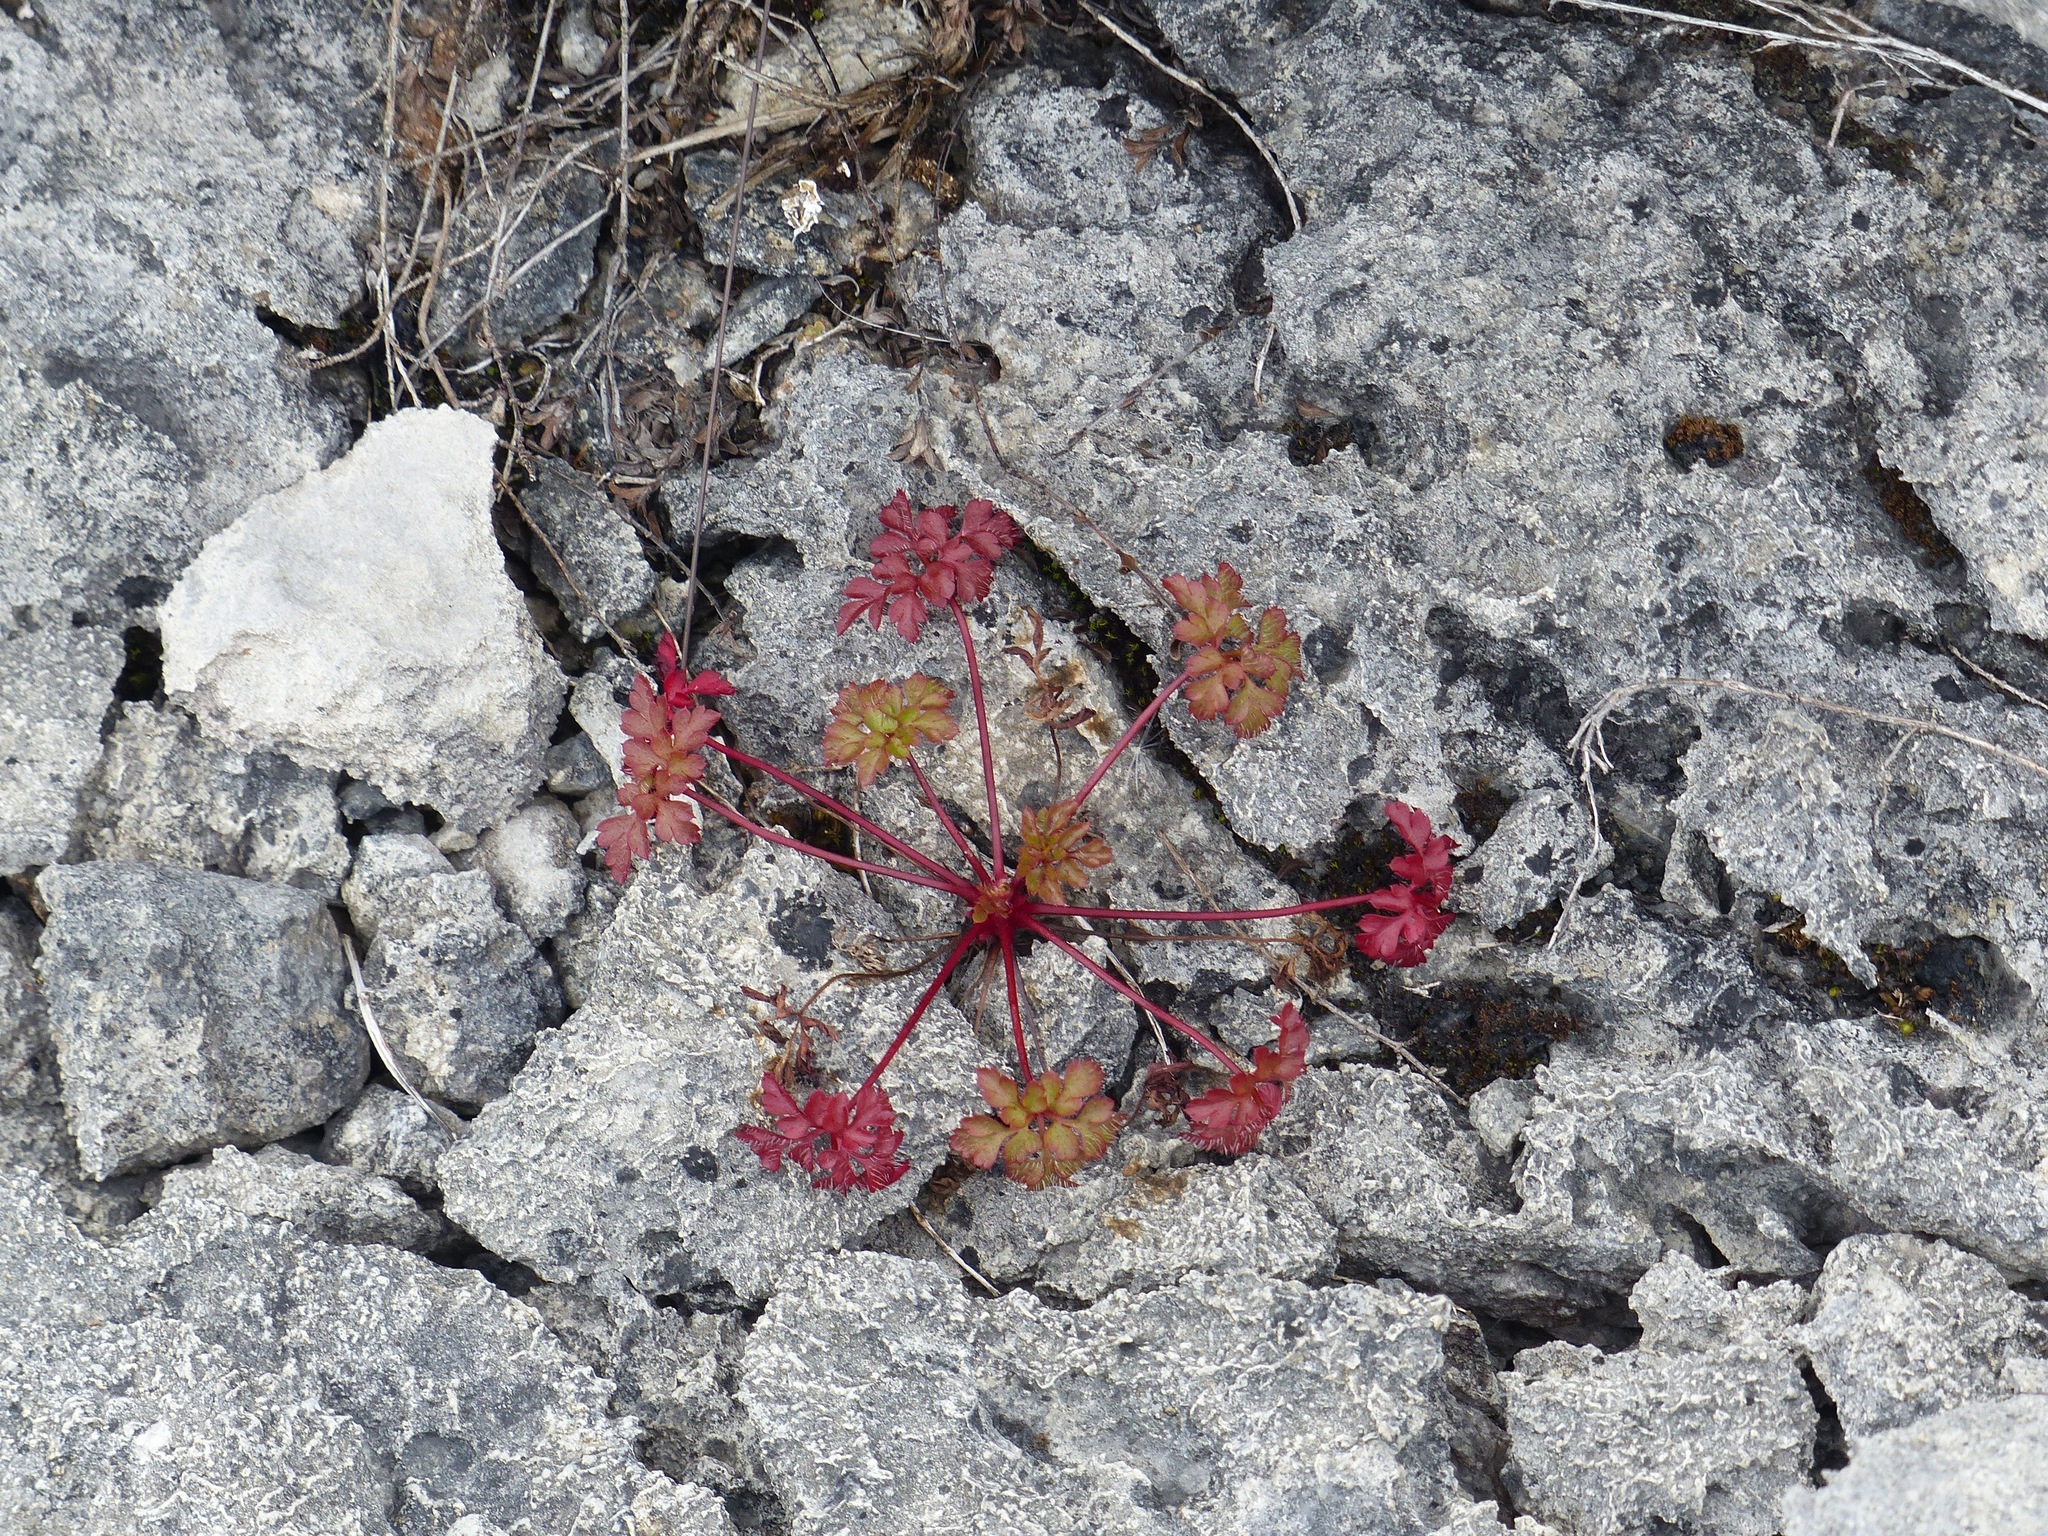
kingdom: Plantae
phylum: Tracheophyta
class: Magnoliopsida
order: Geraniales
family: Geraniaceae
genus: Geranium
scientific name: Geranium robertianum
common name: Herb-robert
